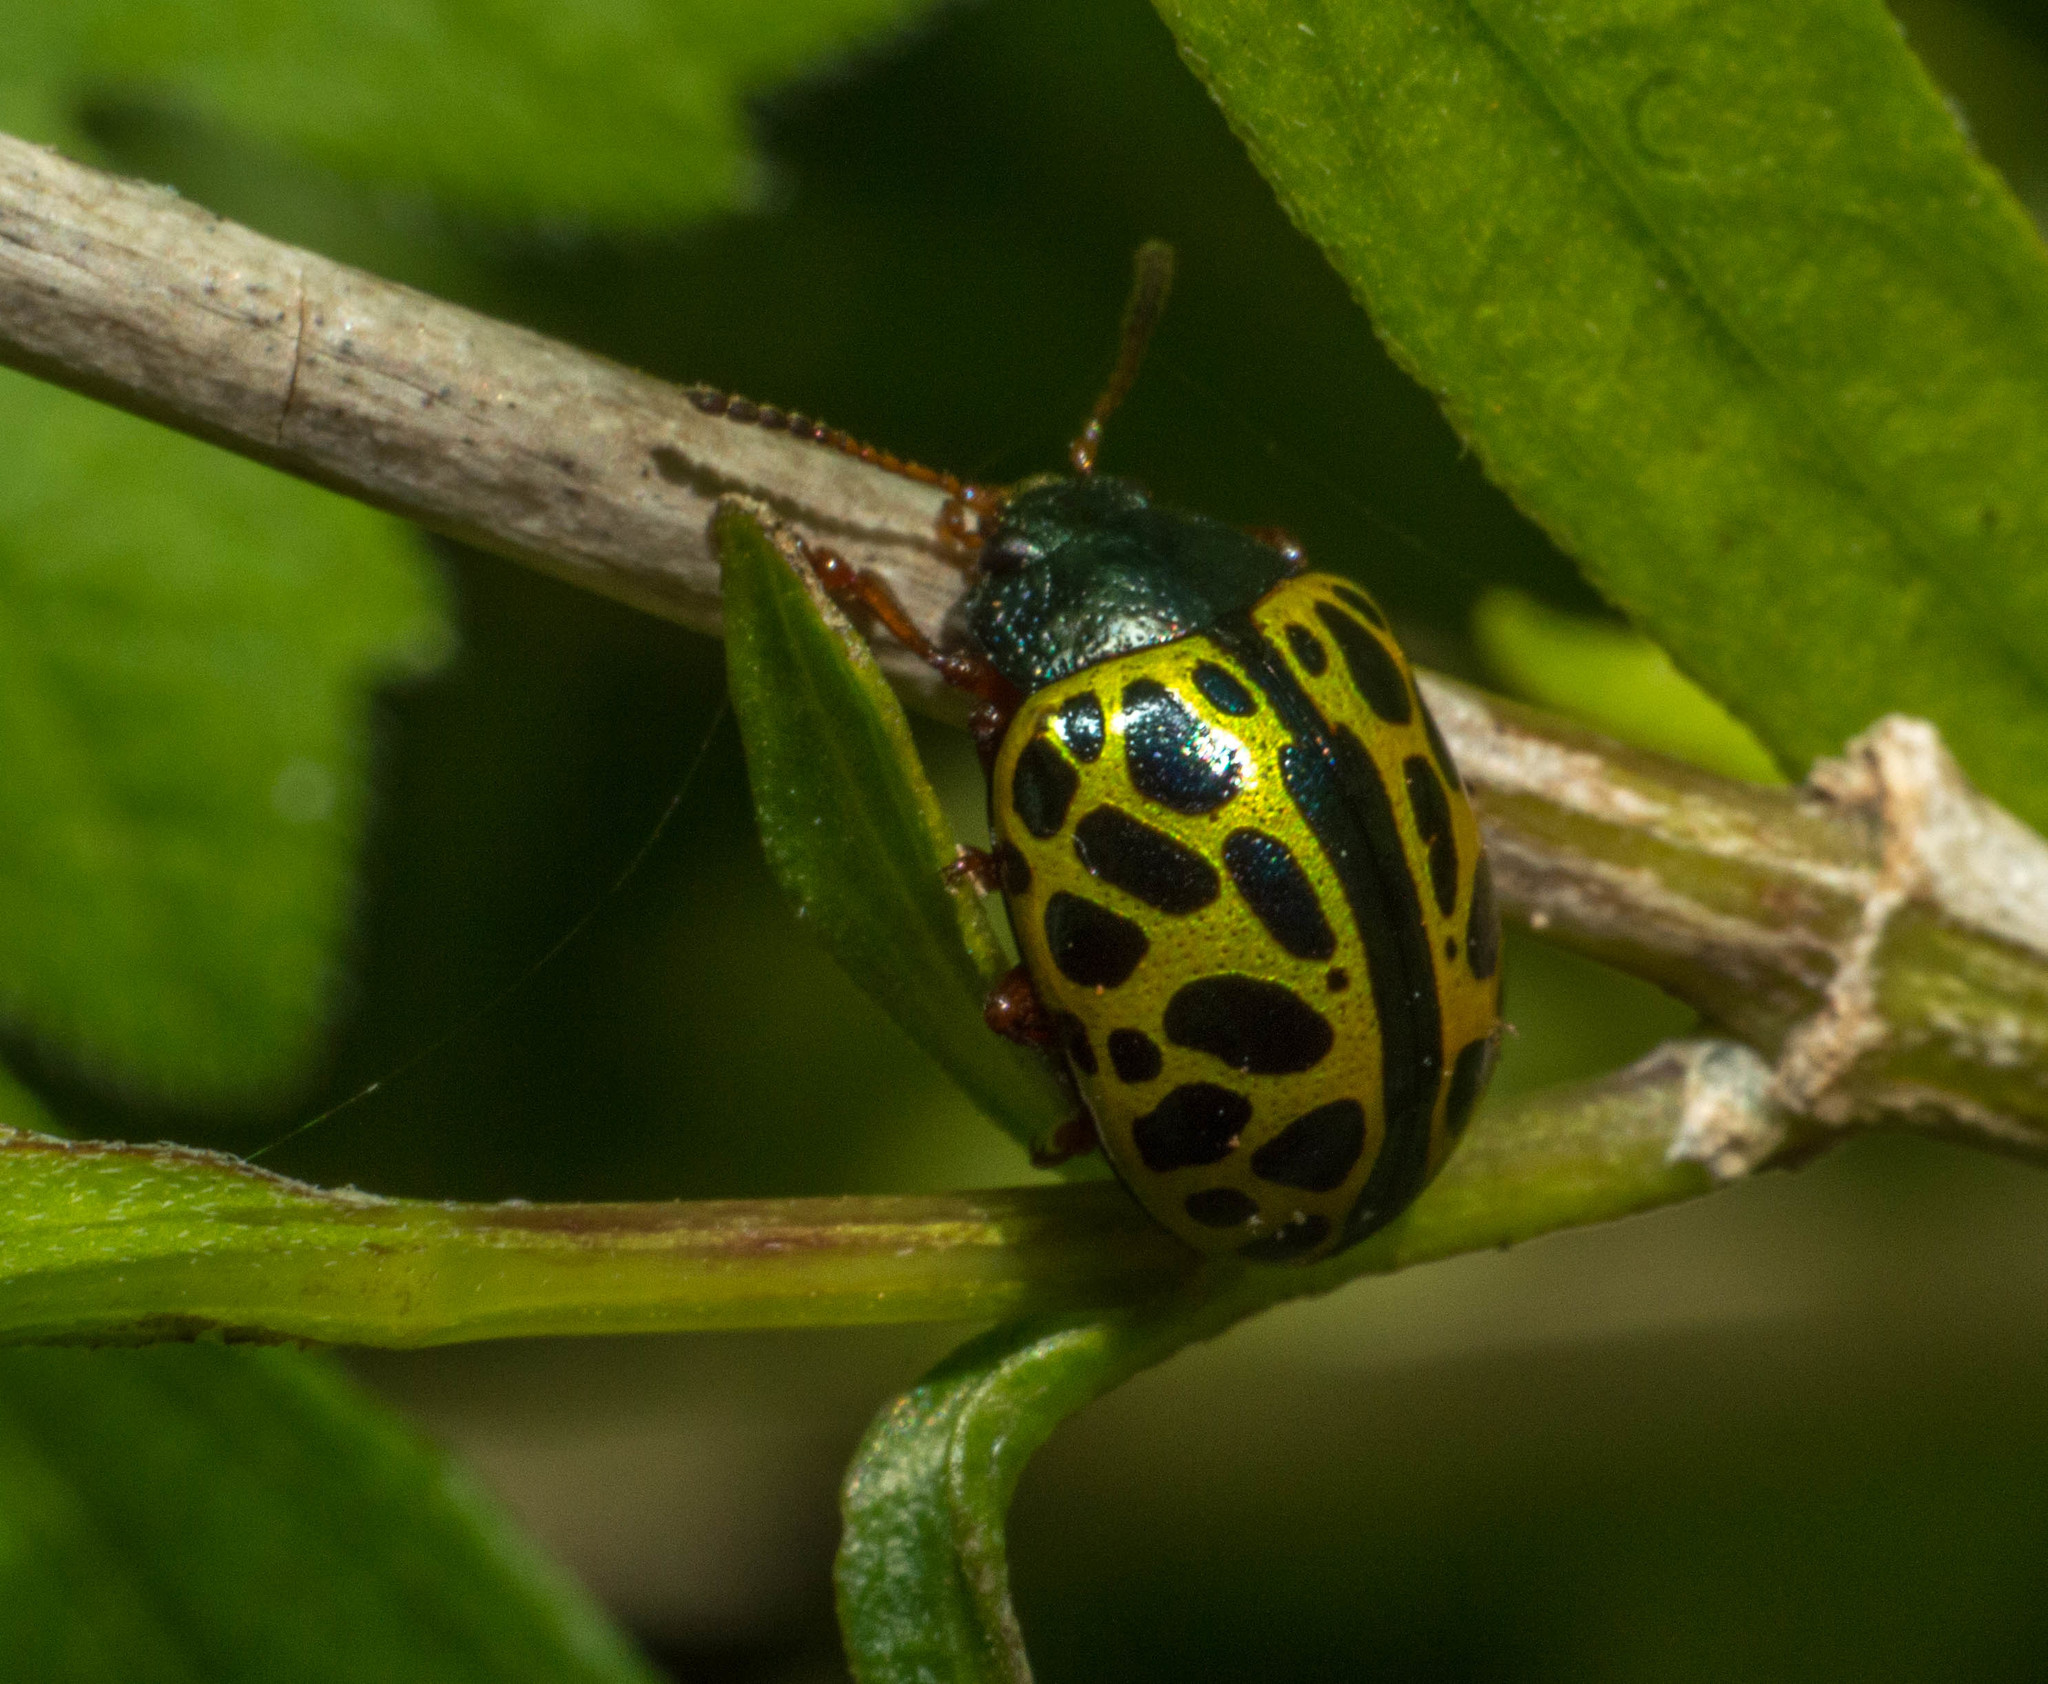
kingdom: Animalia
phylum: Arthropoda
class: Insecta
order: Coleoptera
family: Chrysomelidae
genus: Calligrapha
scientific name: Calligrapha polyspila
